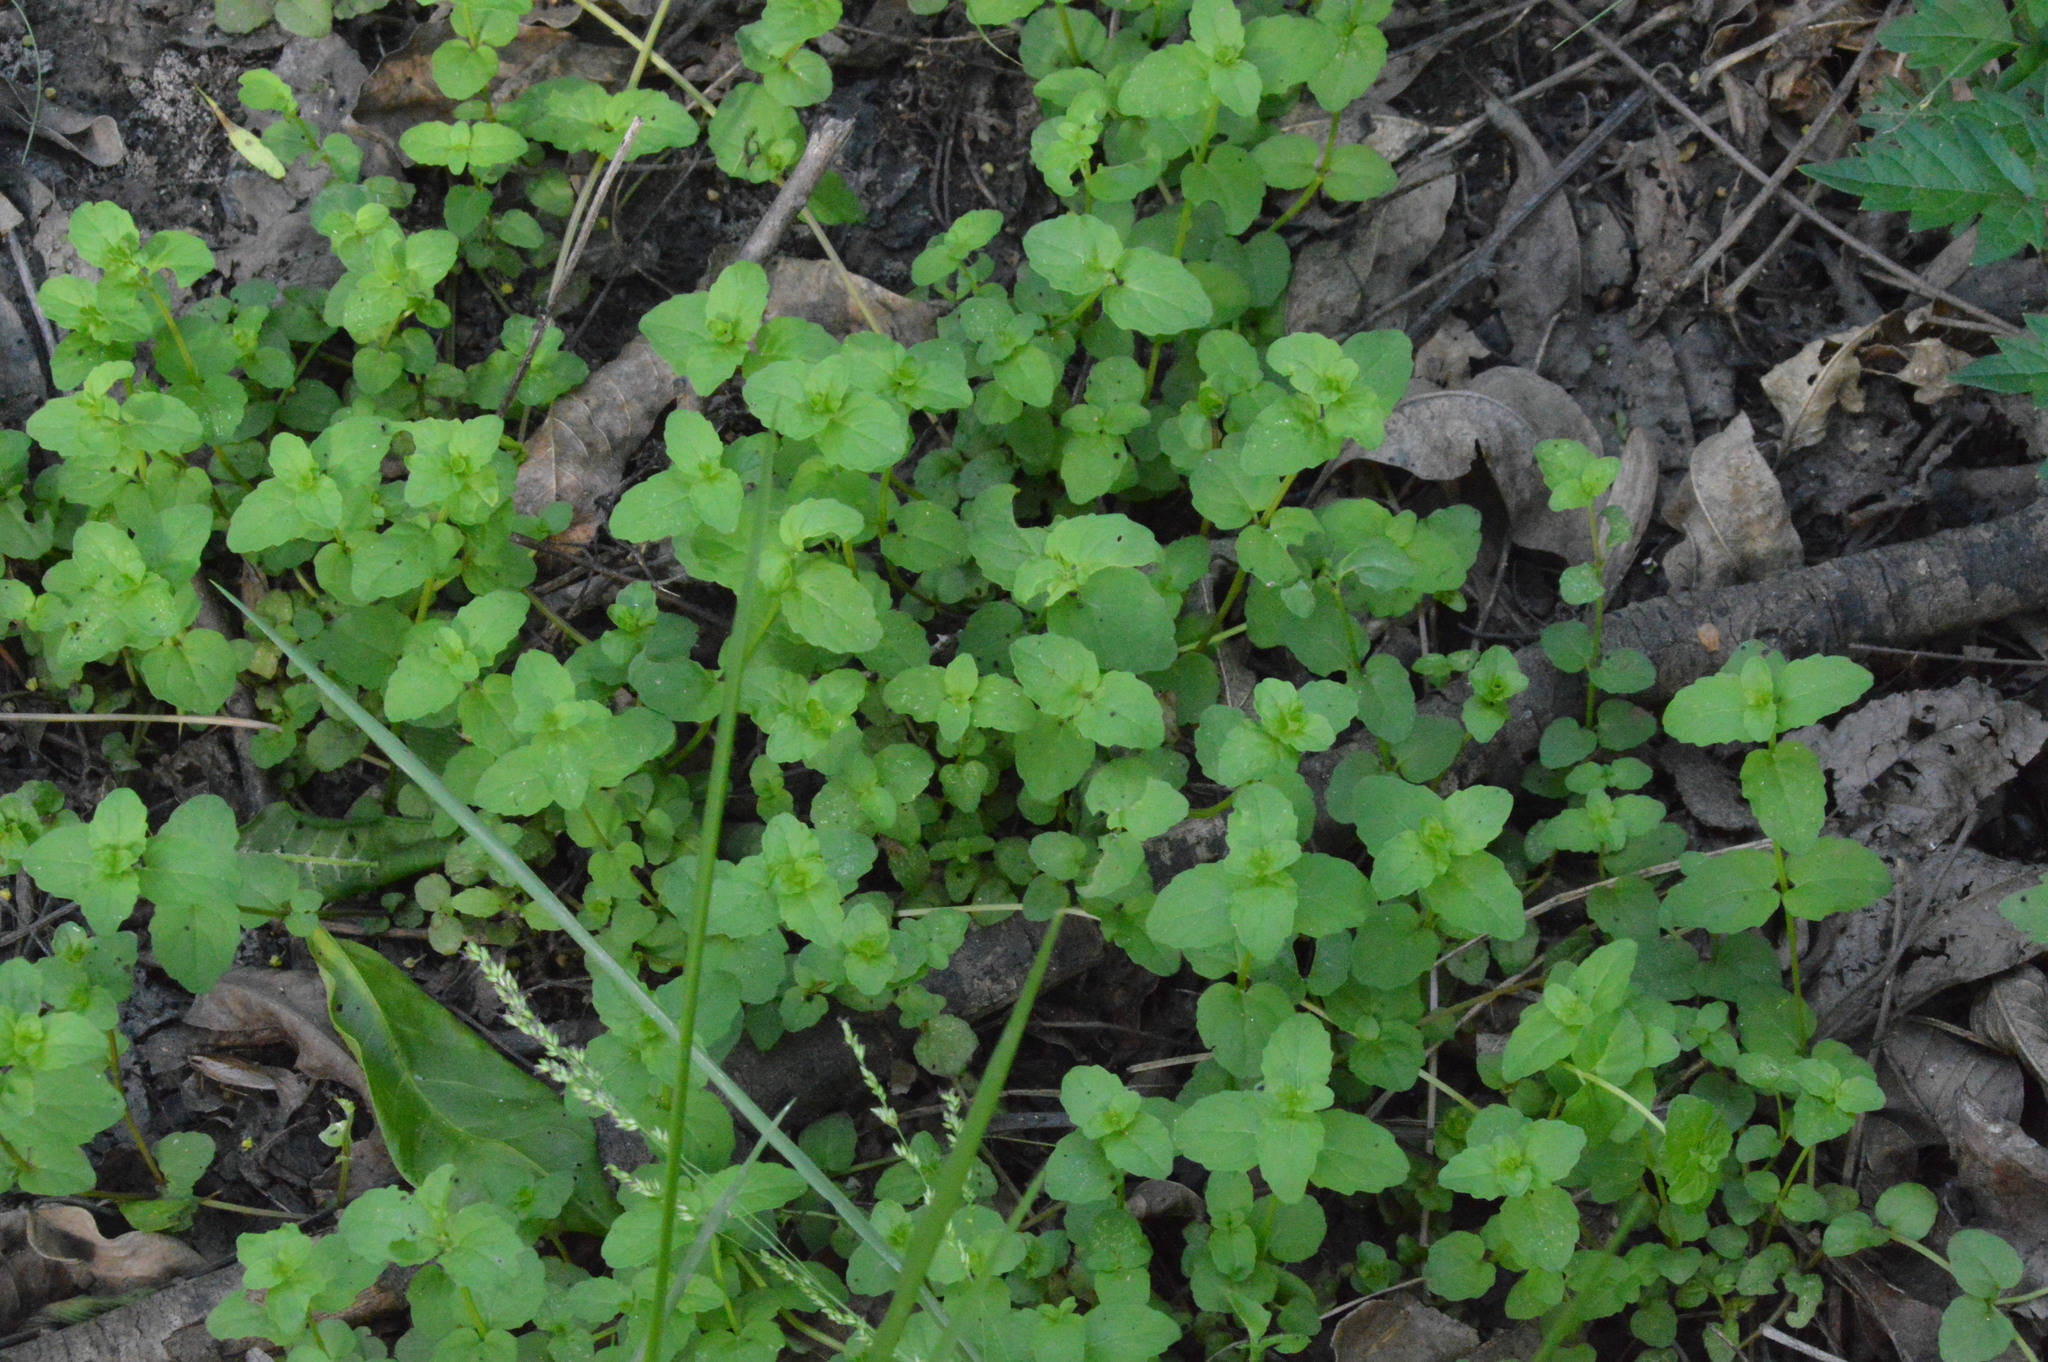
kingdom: Plantae
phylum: Tracheophyta
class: Magnoliopsida
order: Lamiales
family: Lamiaceae
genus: Clinopodium
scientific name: Clinopodium brownei
